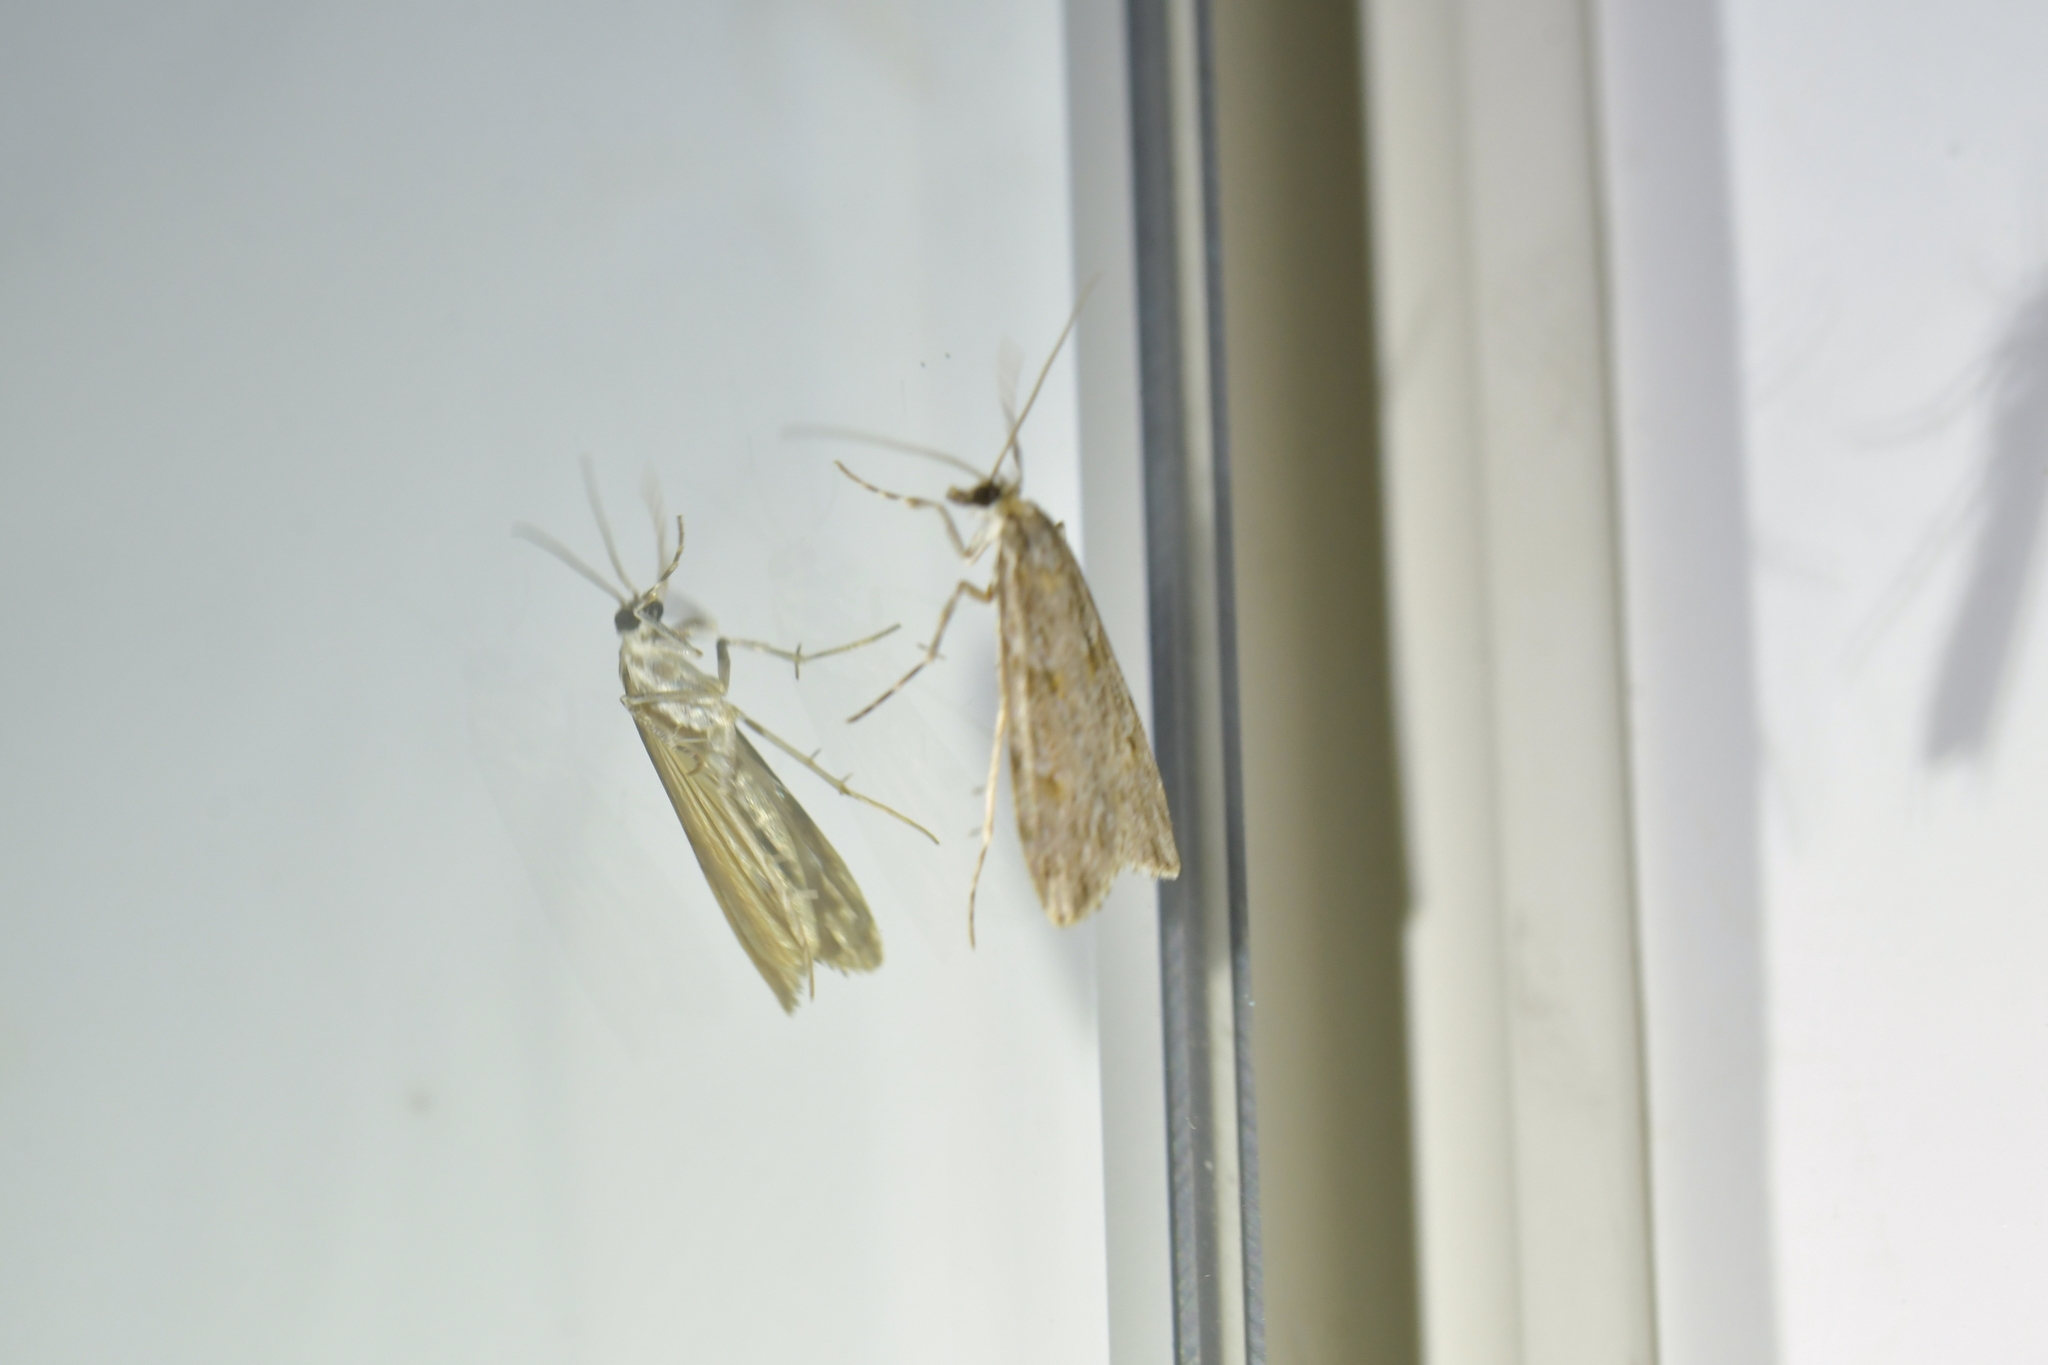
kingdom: Animalia
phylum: Arthropoda
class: Insecta
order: Lepidoptera
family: Crambidae
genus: Scoparia
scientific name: Scoparia chalicodes
